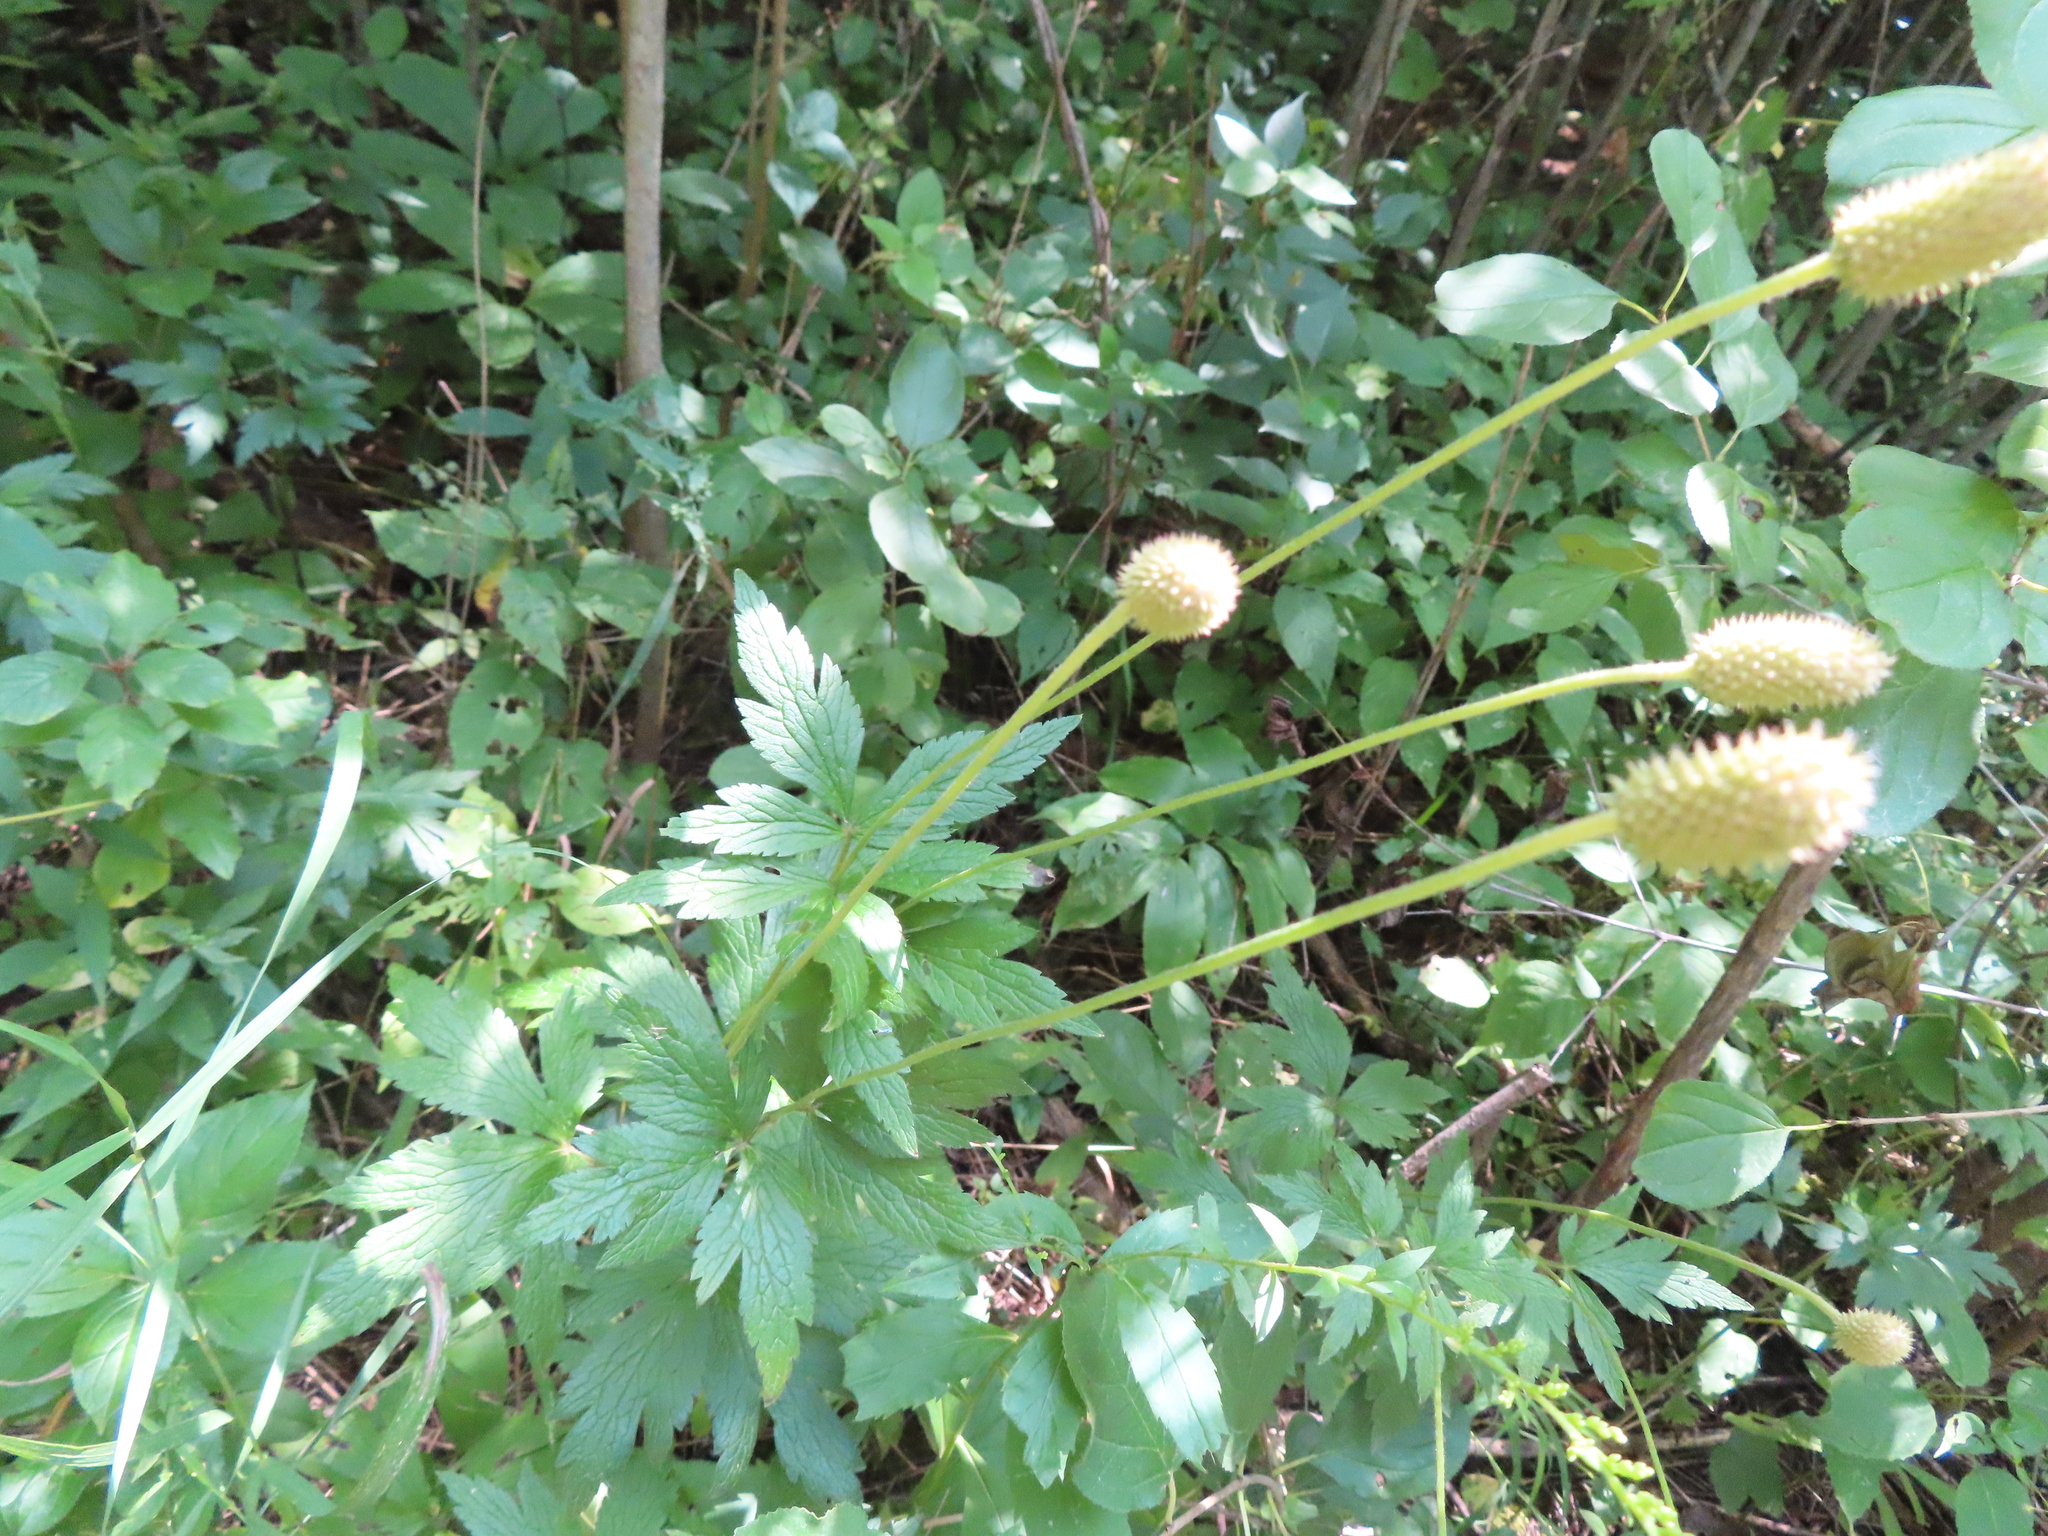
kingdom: Plantae
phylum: Tracheophyta
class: Magnoliopsida
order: Ranunculales
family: Ranunculaceae
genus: Anemone
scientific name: Anemone virginiana
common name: Tall anemone
